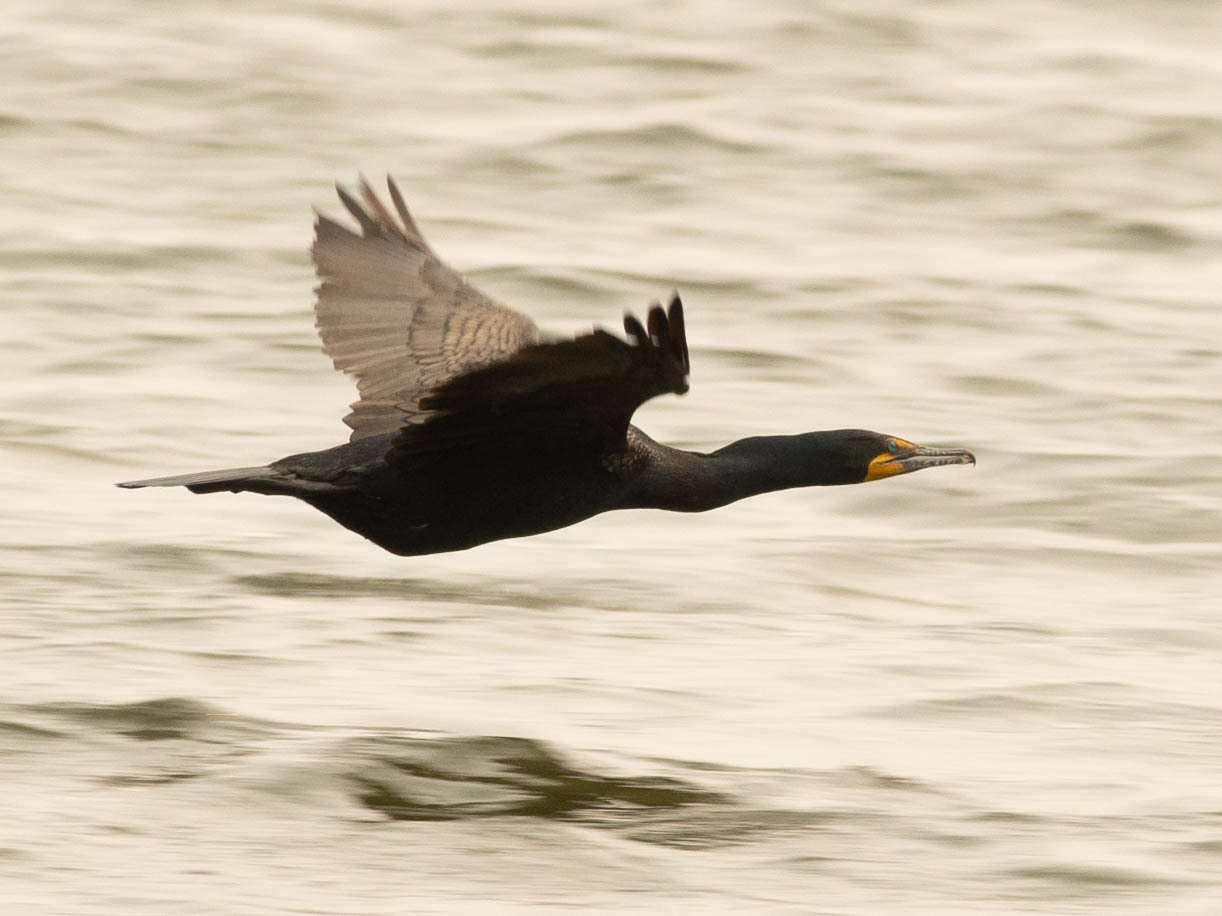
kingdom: Animalia
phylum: Chordata
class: Aves
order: Suliformes
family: Phalacrocoracidae
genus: Phalacrocorax
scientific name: Phalacrocorax auritus
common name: Double-crested cormorant
